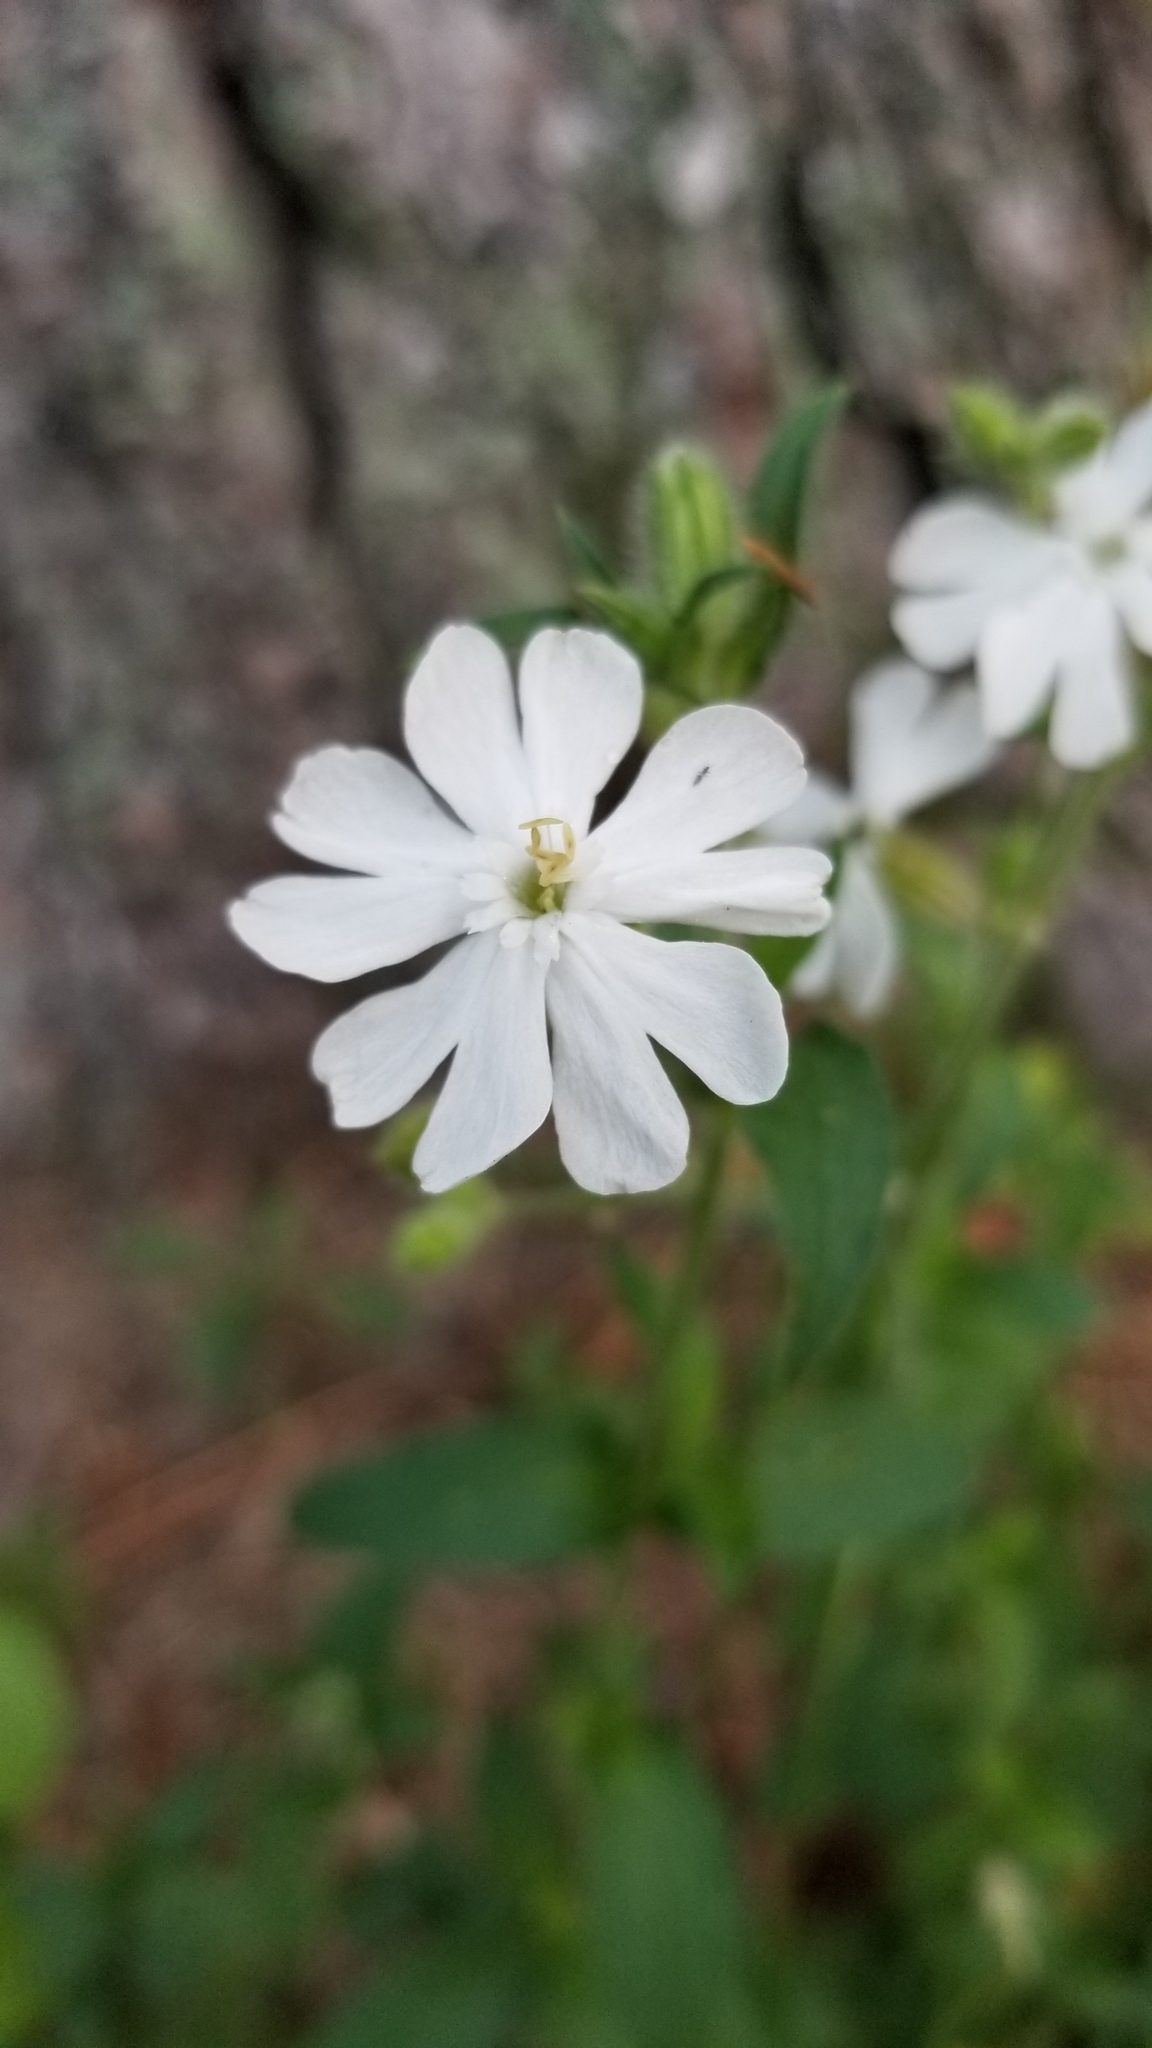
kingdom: Plantae
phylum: Tracheophyta
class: Magnoliopsida
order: Caryophyllales
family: Caryophyllaceae
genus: Silene
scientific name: Silene latifolia
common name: White campion
